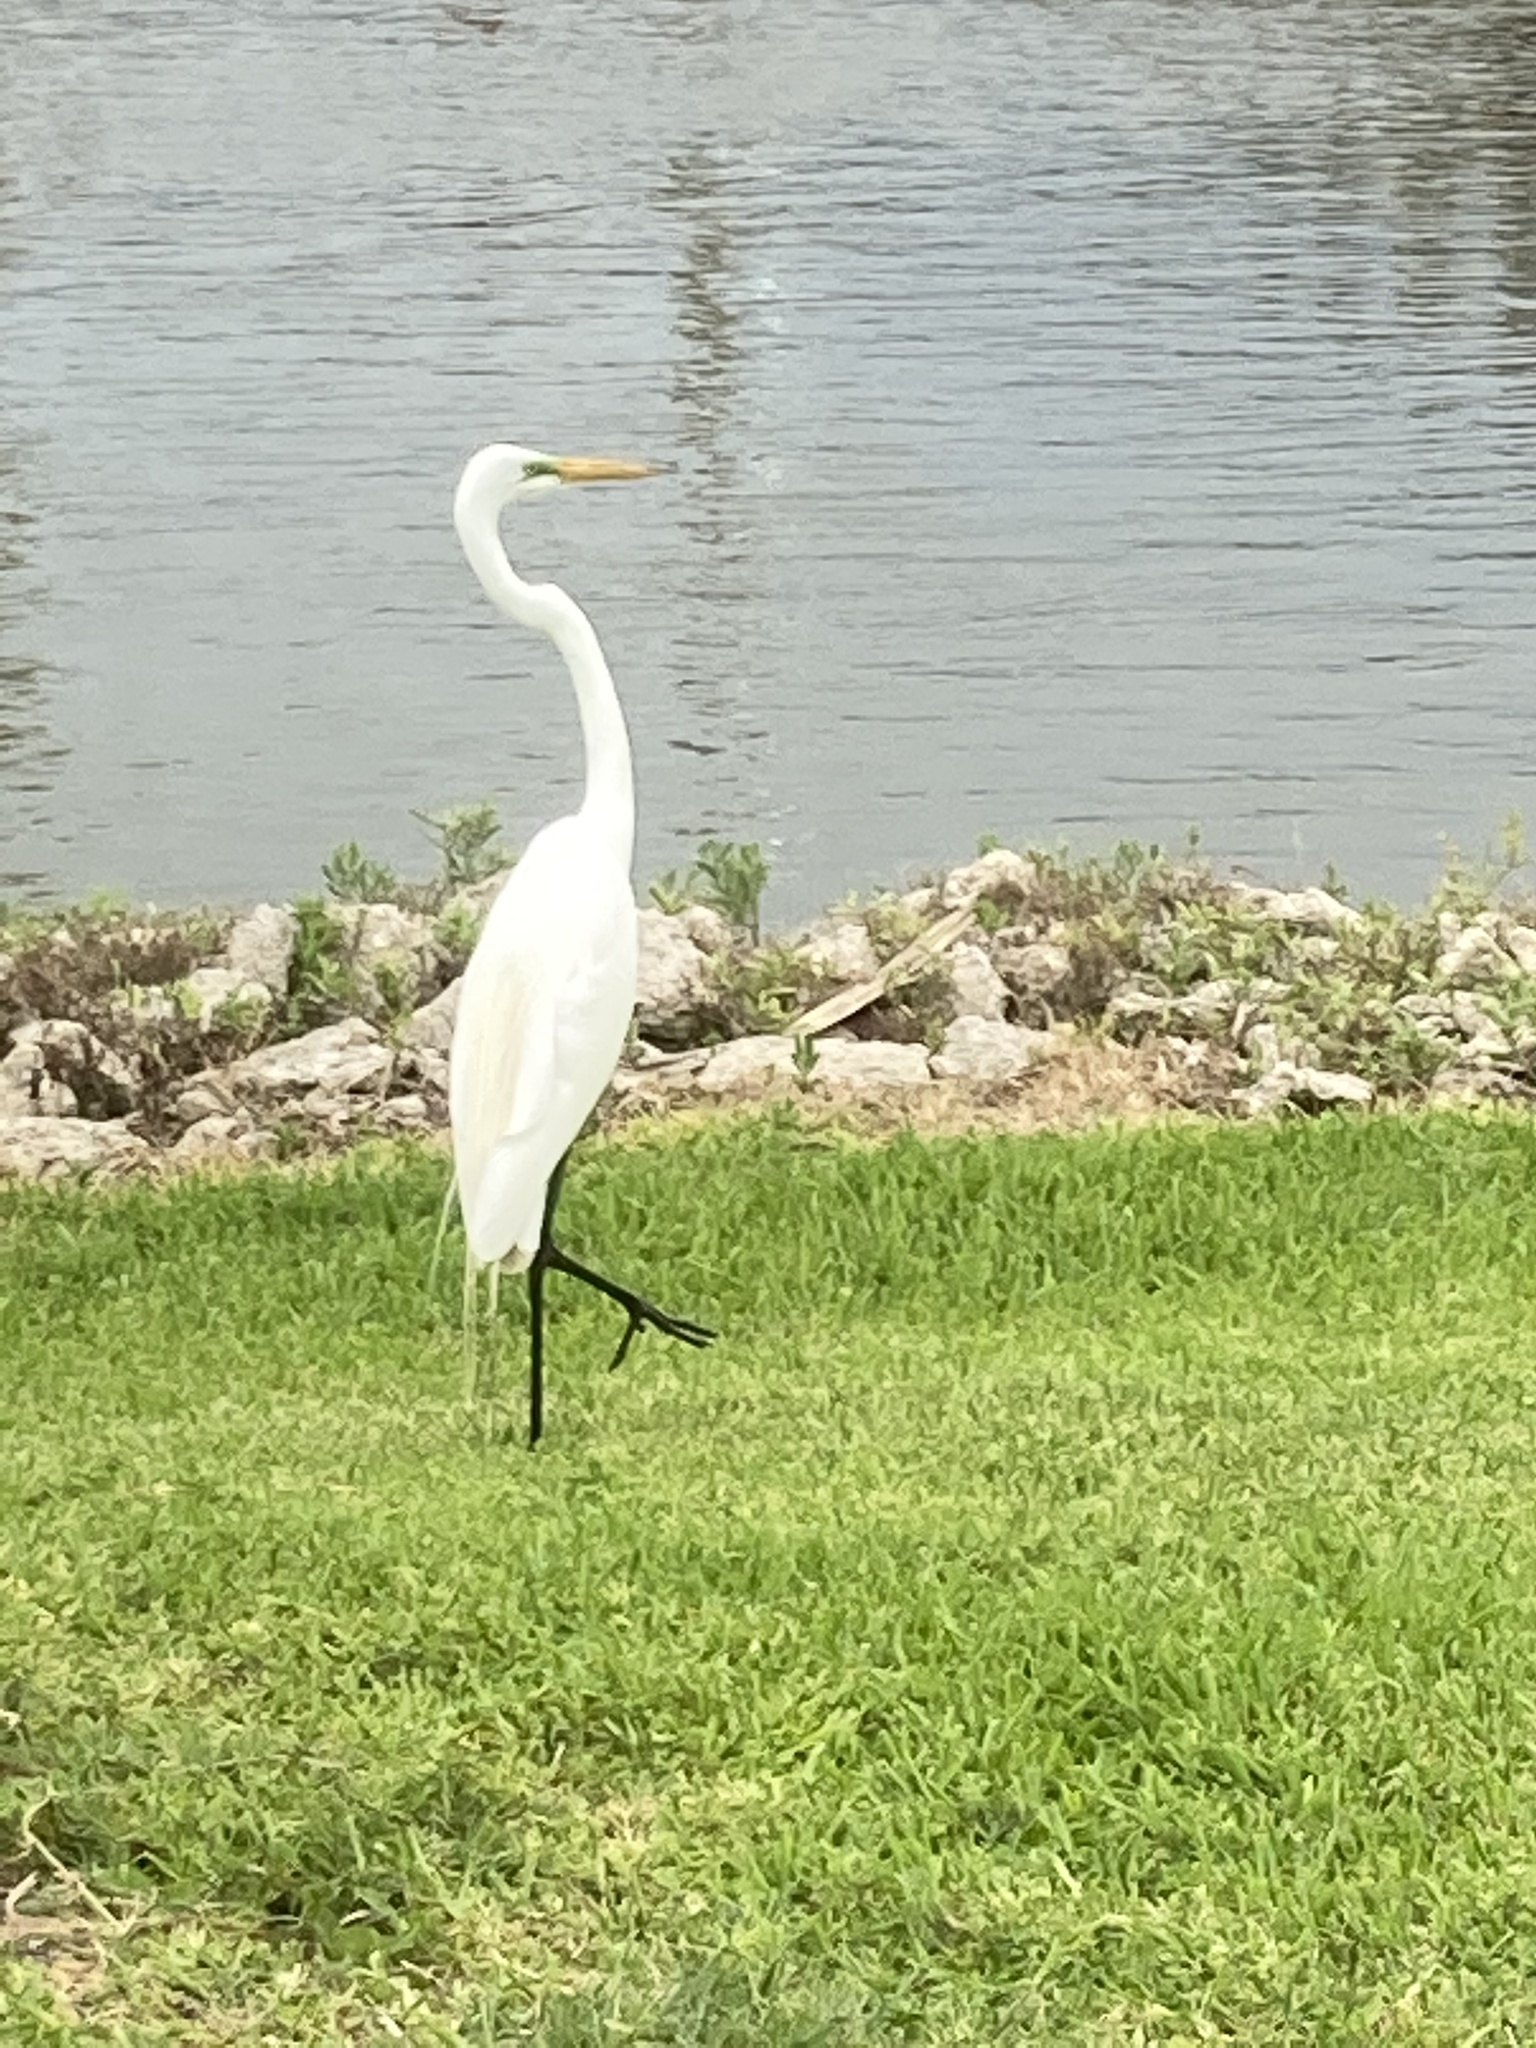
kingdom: Animalia
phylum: Chordata
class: Aves
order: Pelecaniformes
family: Ardeidae
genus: Ardea
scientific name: Ardea alba
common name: Great egret
